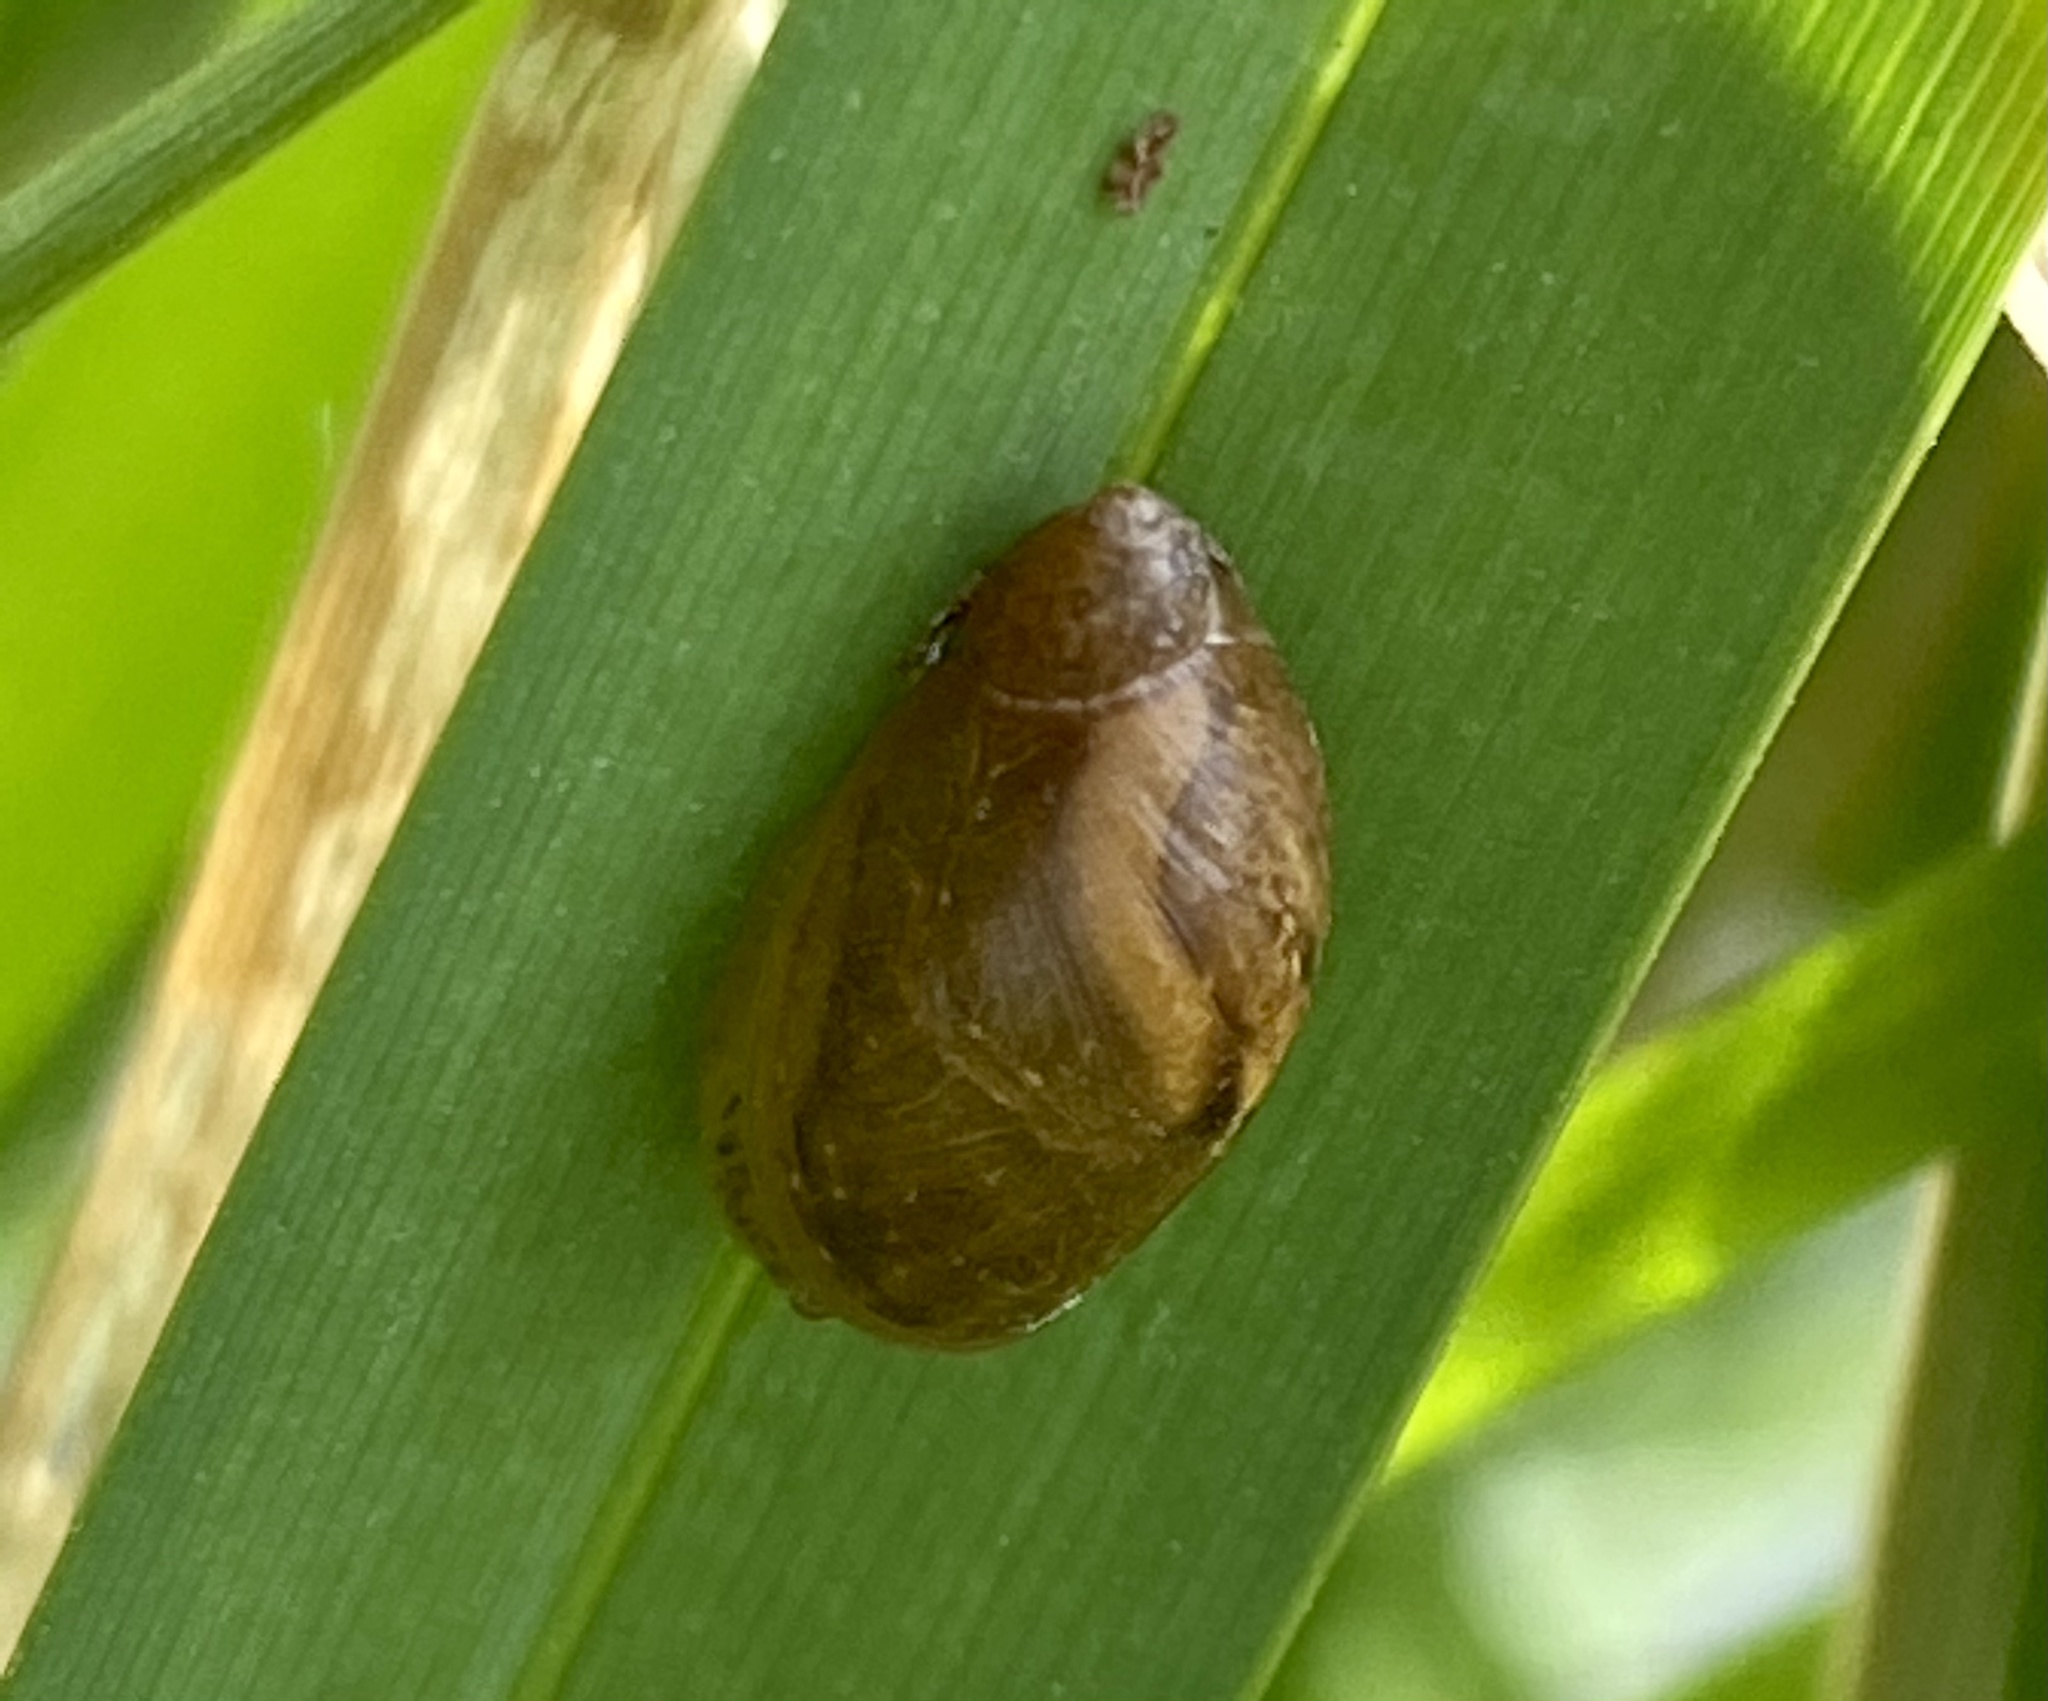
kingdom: Animalia
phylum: Mollusca
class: Gastropoda
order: Stylommatophora
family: Succineidae
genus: Succinea
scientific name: Succinea putris
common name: European ambersnail
